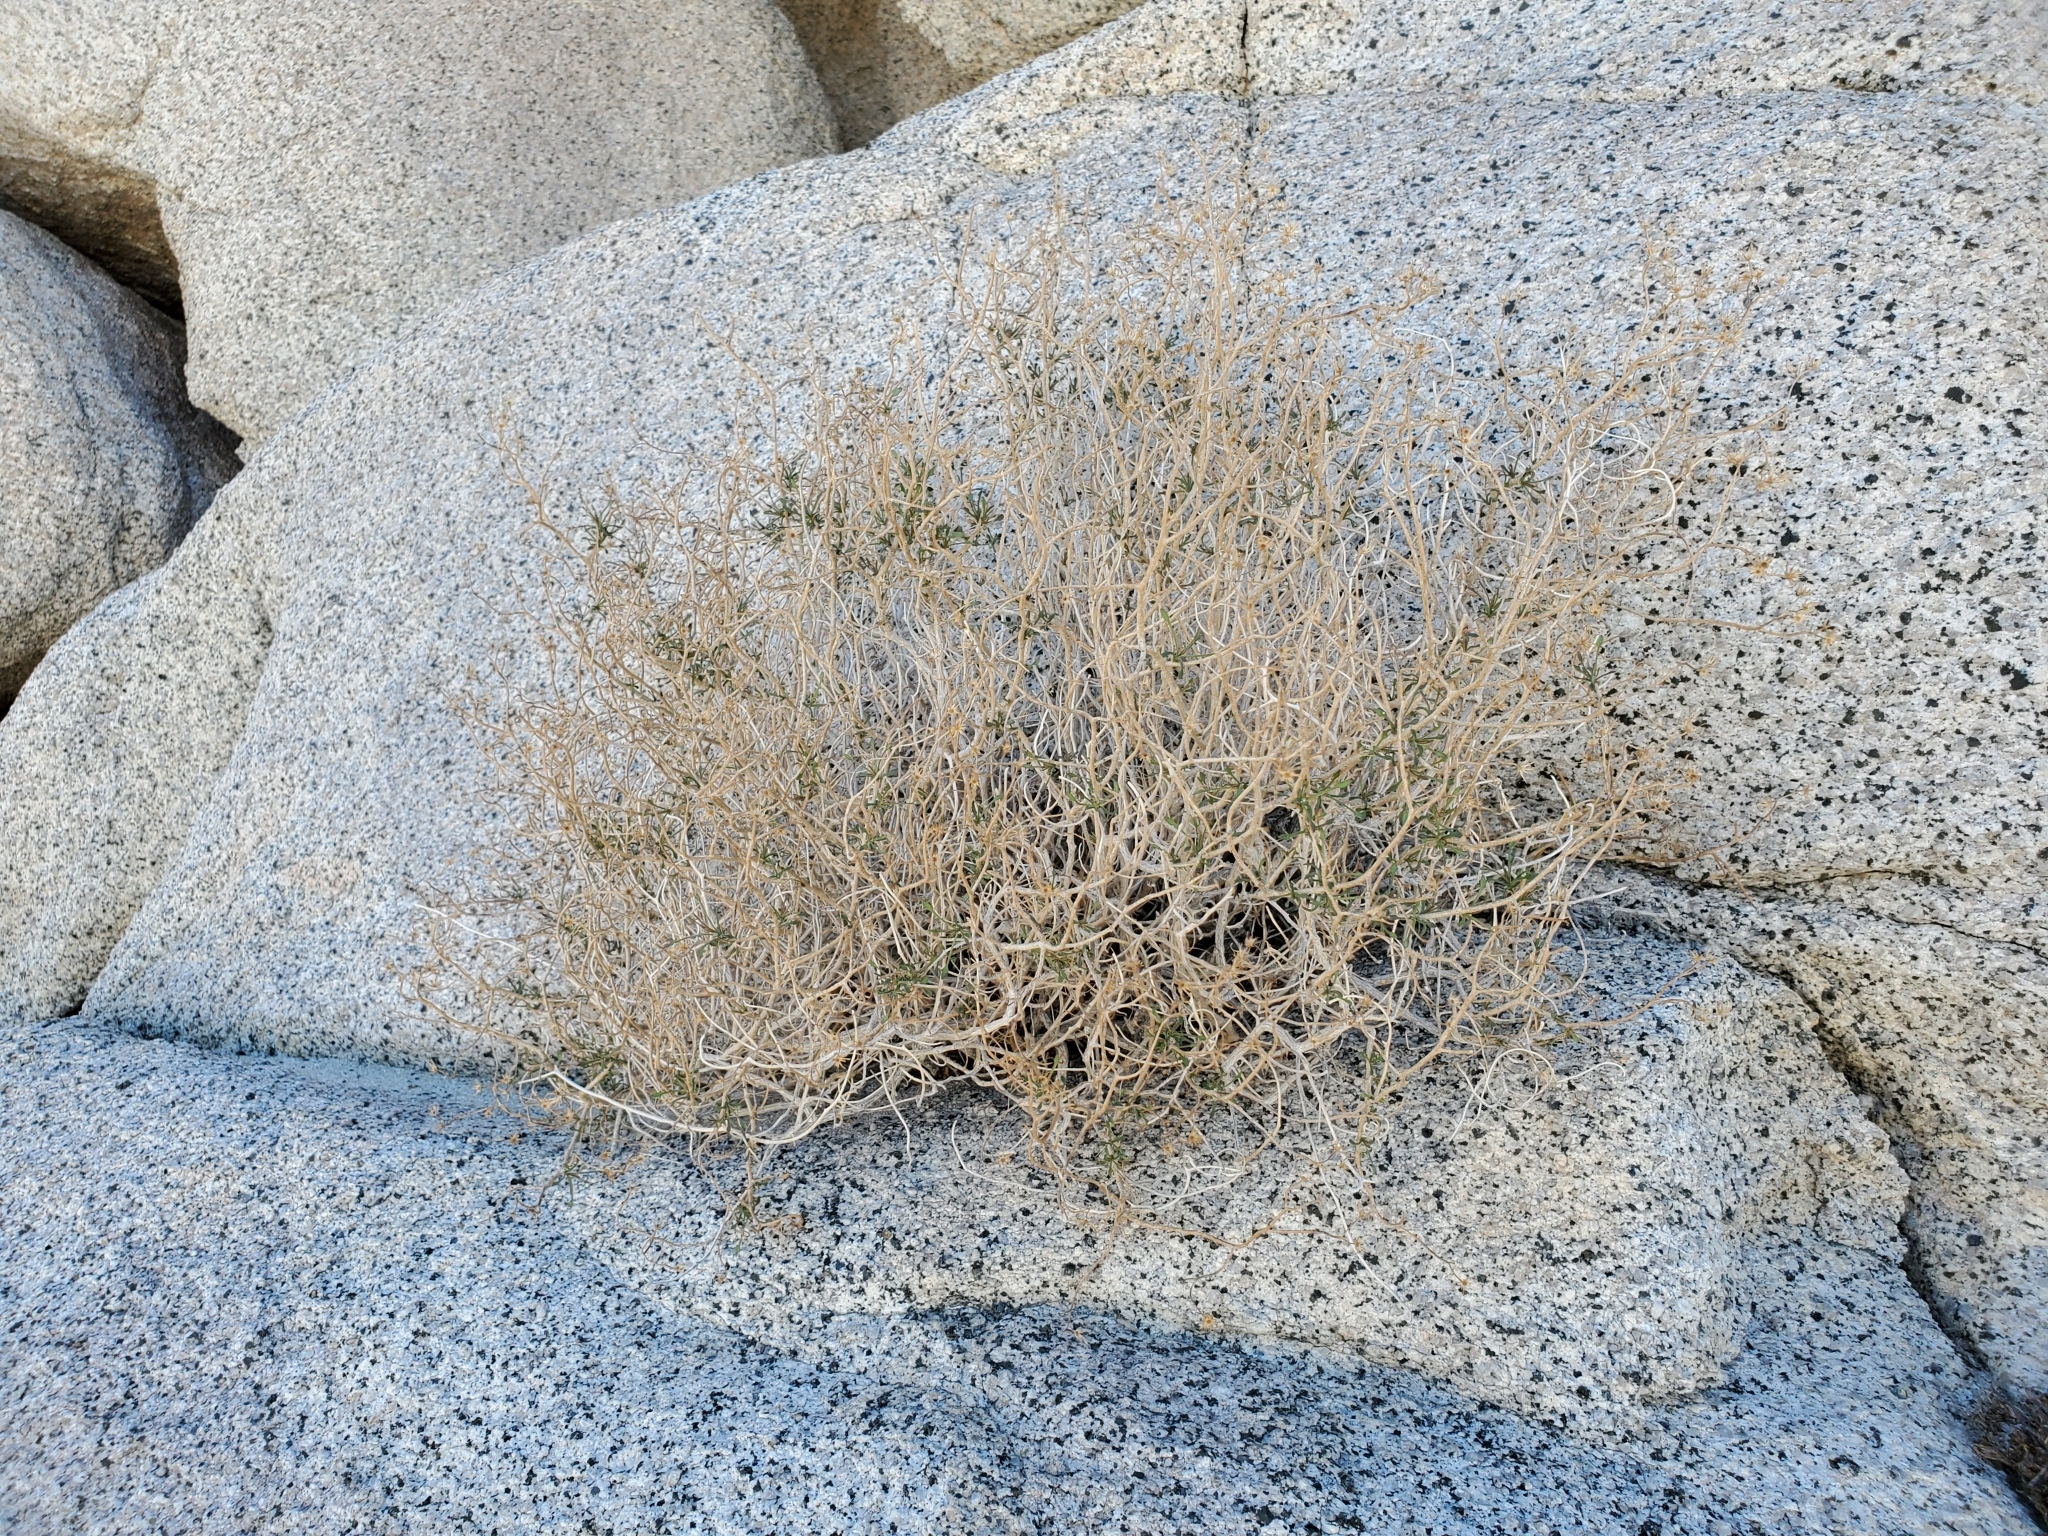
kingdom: Plantae
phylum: Tracheophyta
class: Magnoliopsida
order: Asterales
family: Asteraceae
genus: Pleurocoronis
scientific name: Pleurocoronis pluriseta
